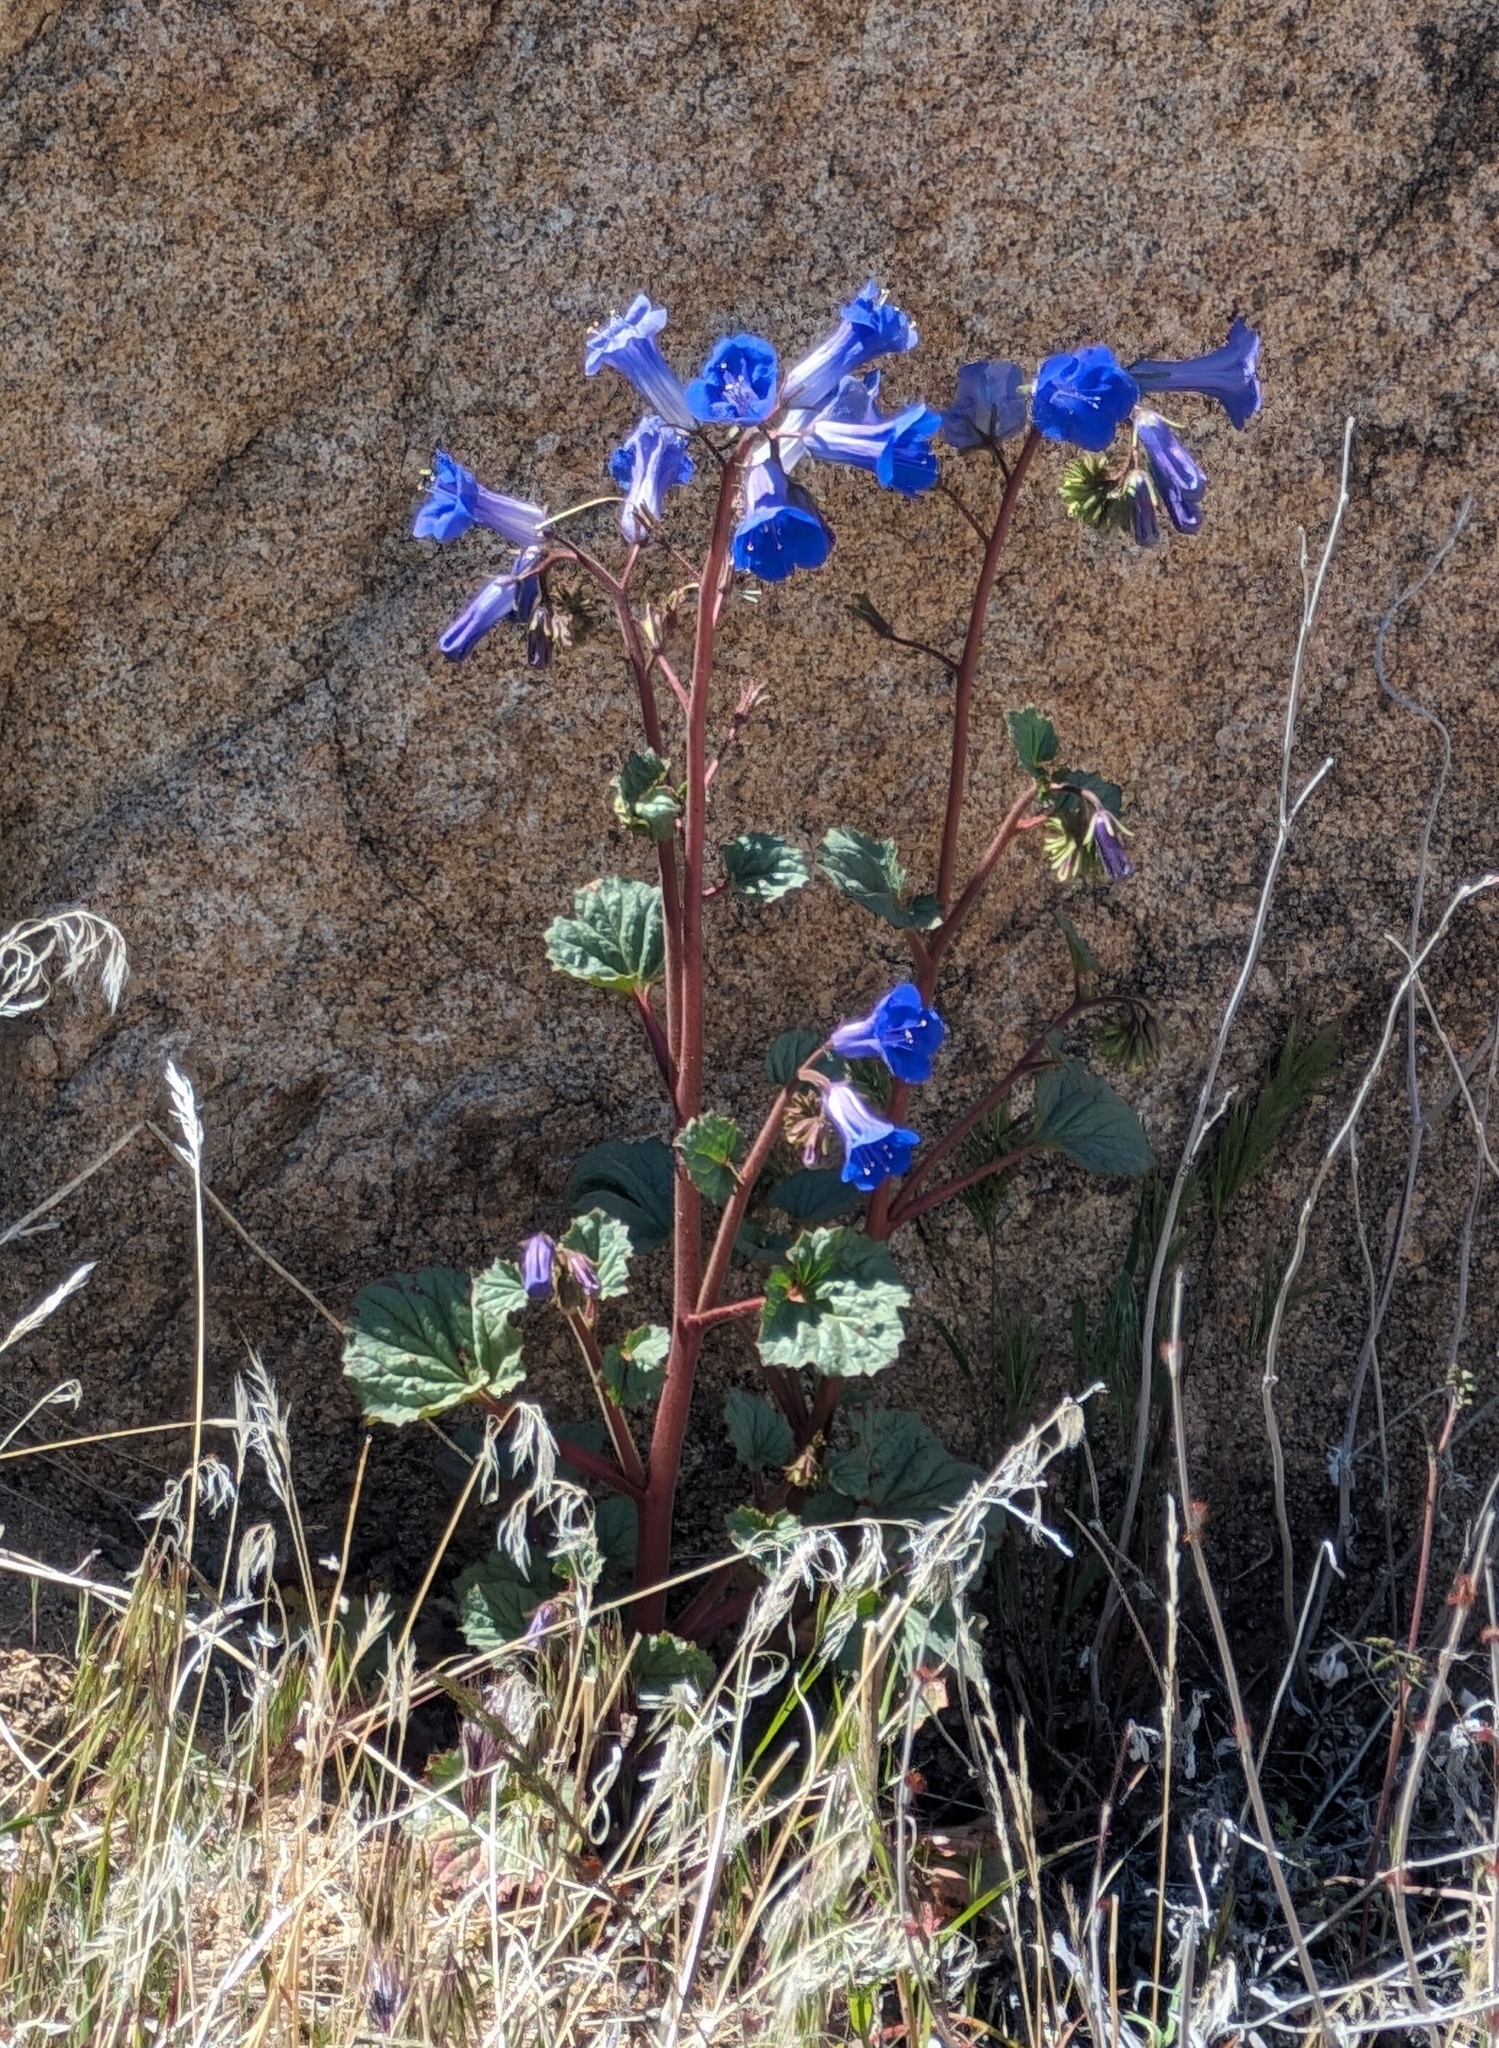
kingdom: Plantae
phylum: Tracheophyta
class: Magnoliopsida
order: Boraginales
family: Hydrophyllaceae
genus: Phacelia
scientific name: Phacelia campanularia
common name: California bluebell
